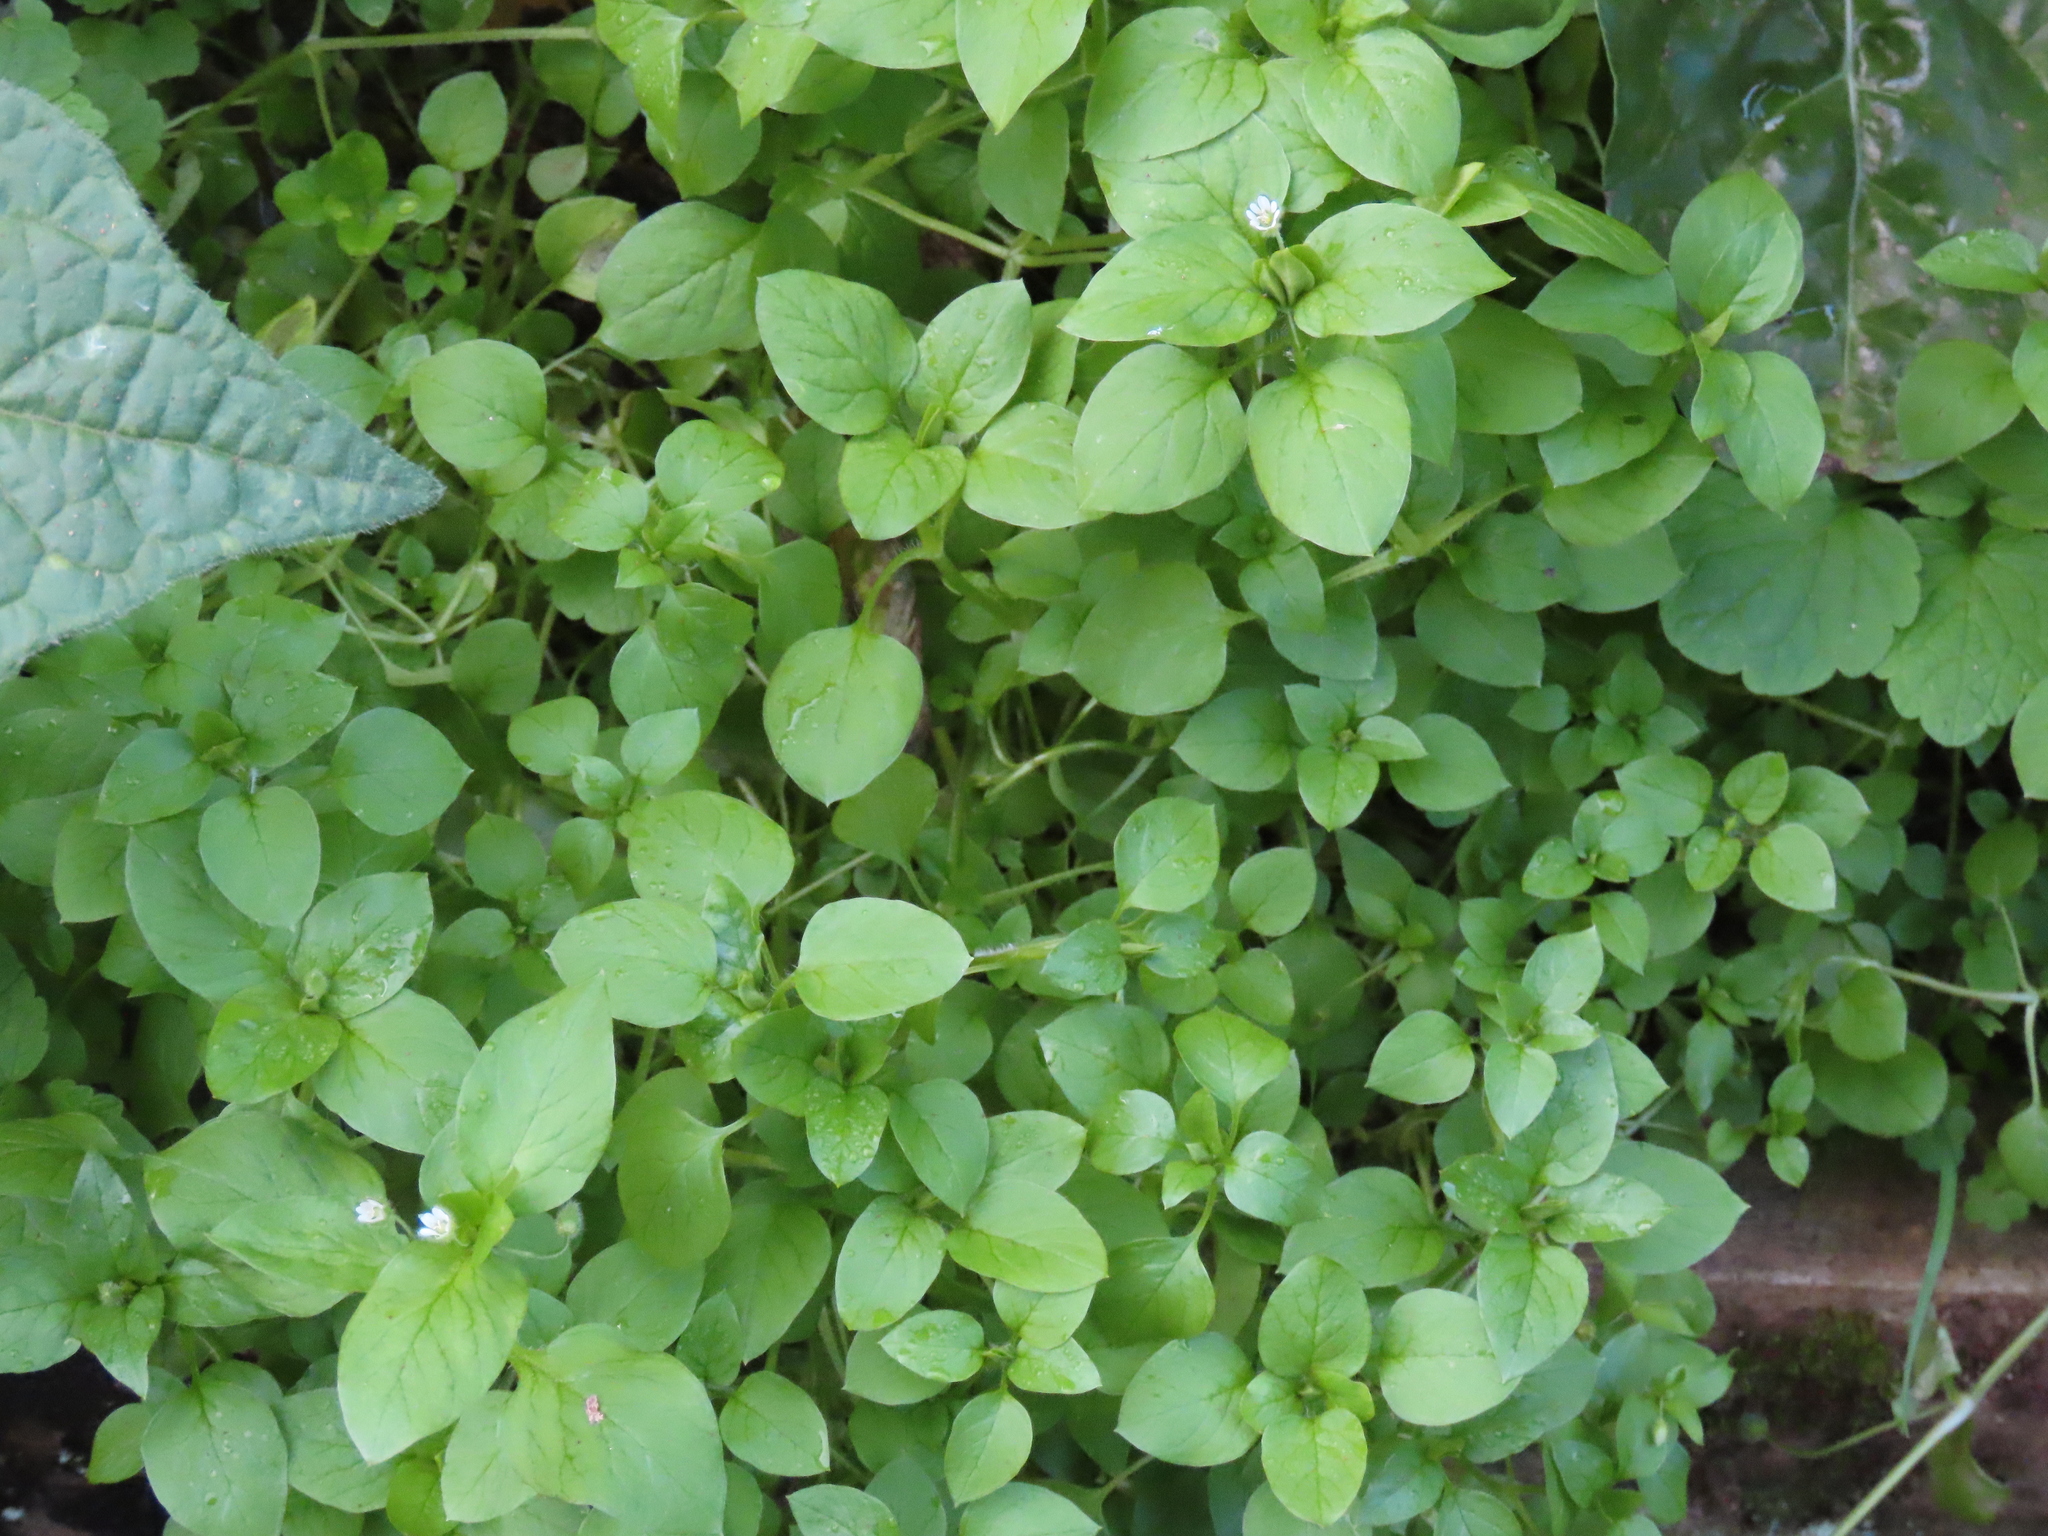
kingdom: Plantae
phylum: Tracheophyta
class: Magnoliopsida
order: Caryophyllales
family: Caryophyllaceae
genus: Stellaria
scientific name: Stellaria media
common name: Common chickweed
